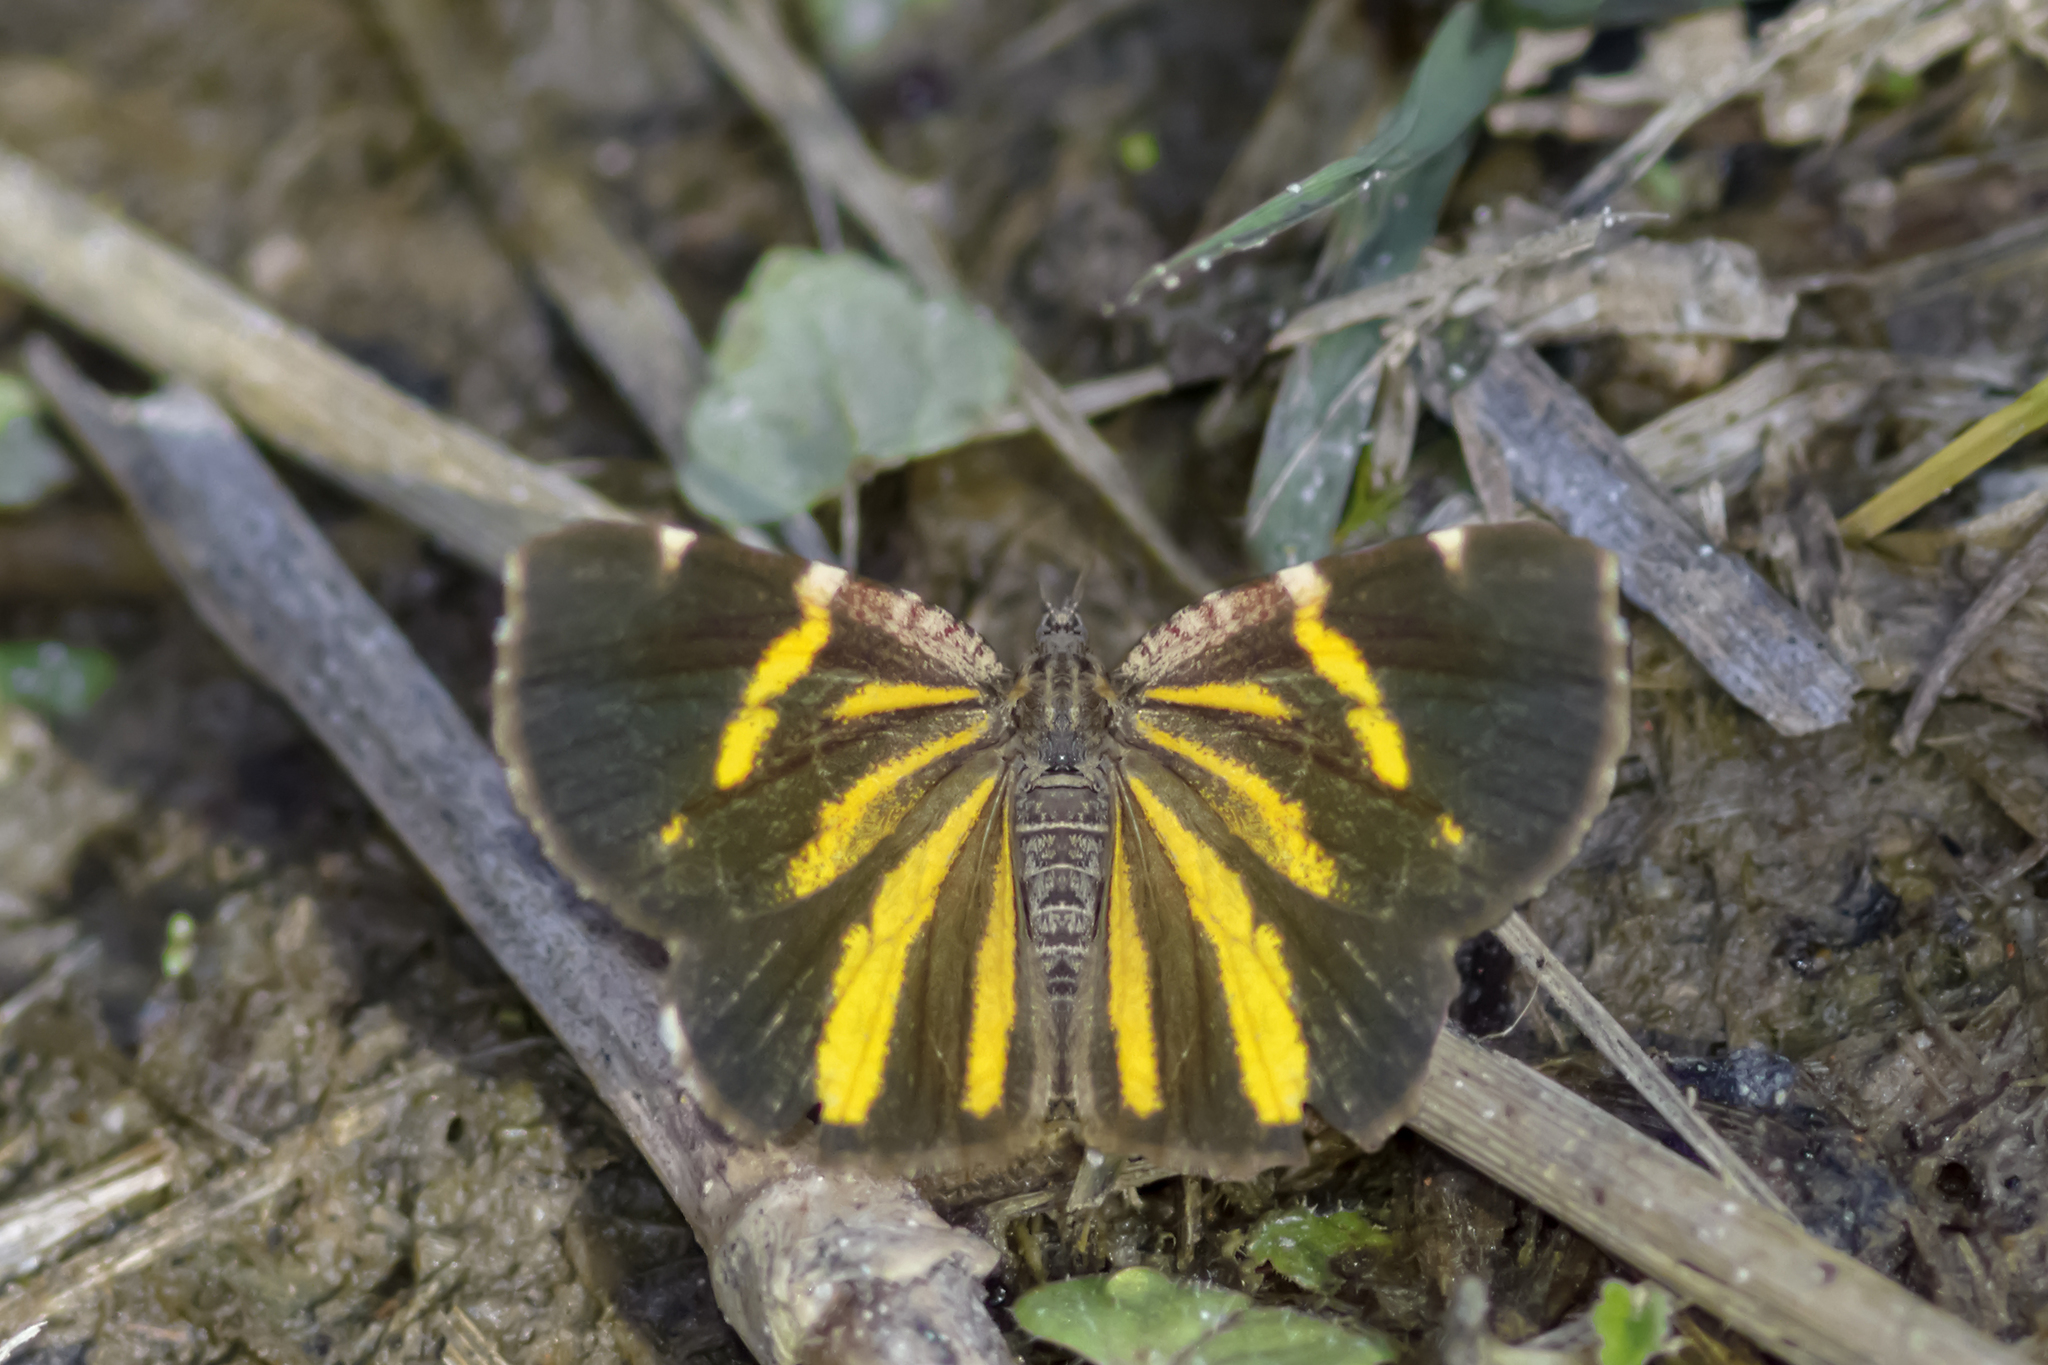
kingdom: Animalia
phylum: Arthropoda
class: Insecta
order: Lepidoptera
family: Geometridae
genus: Heterusia
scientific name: Heterusia quadruplicaria
